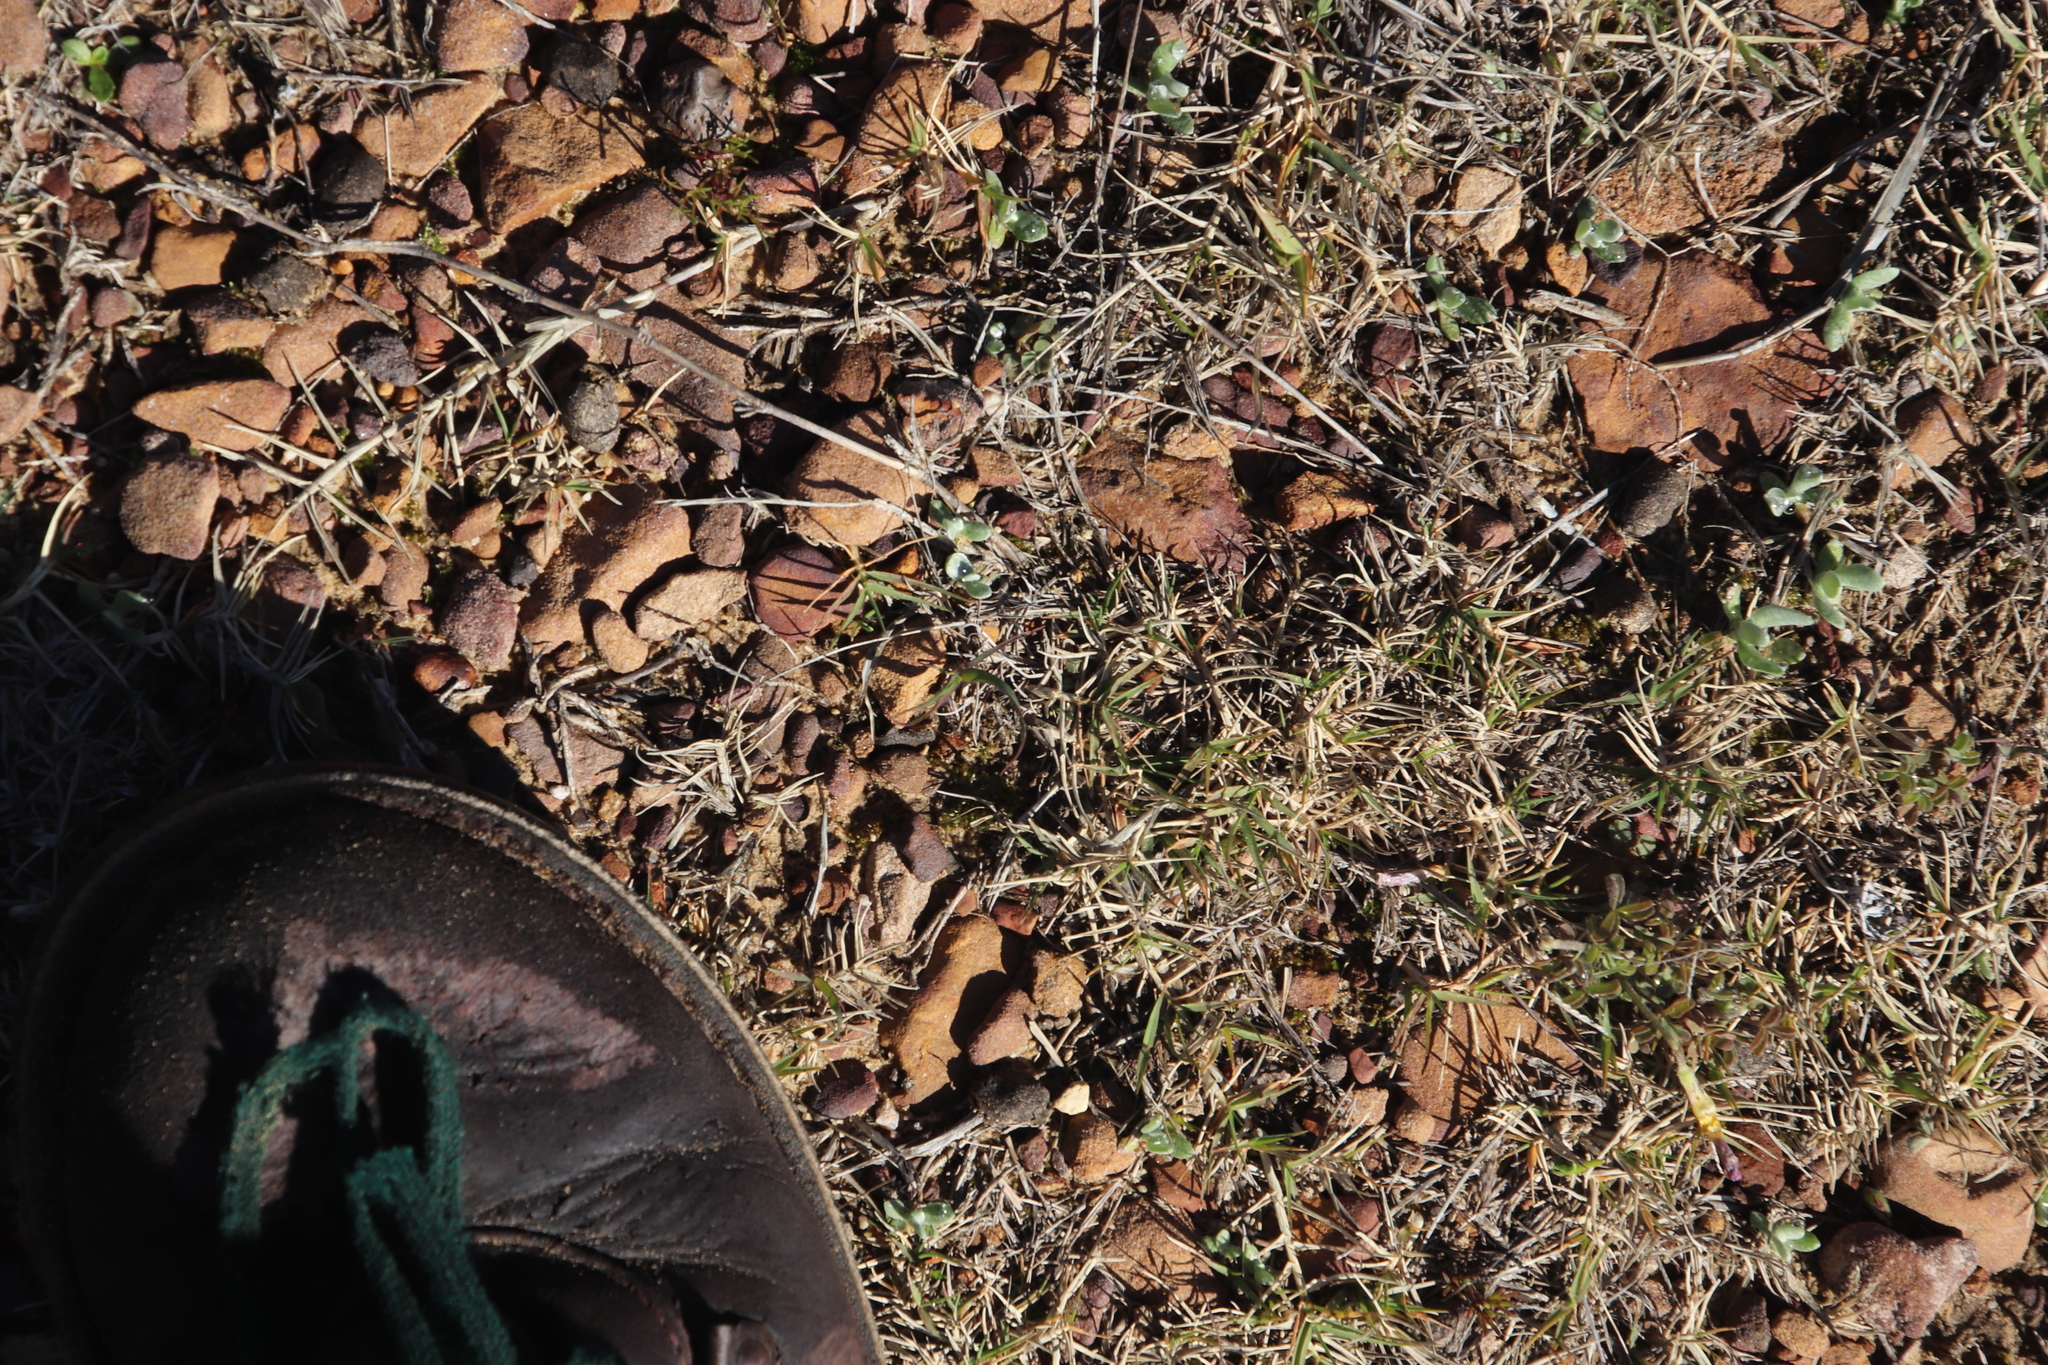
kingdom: Plantae
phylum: Tracheophyta
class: Liliopsida
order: Poales
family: Poaceae
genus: Cynodon
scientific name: Cynodon dactylon
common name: Bermuda grass
